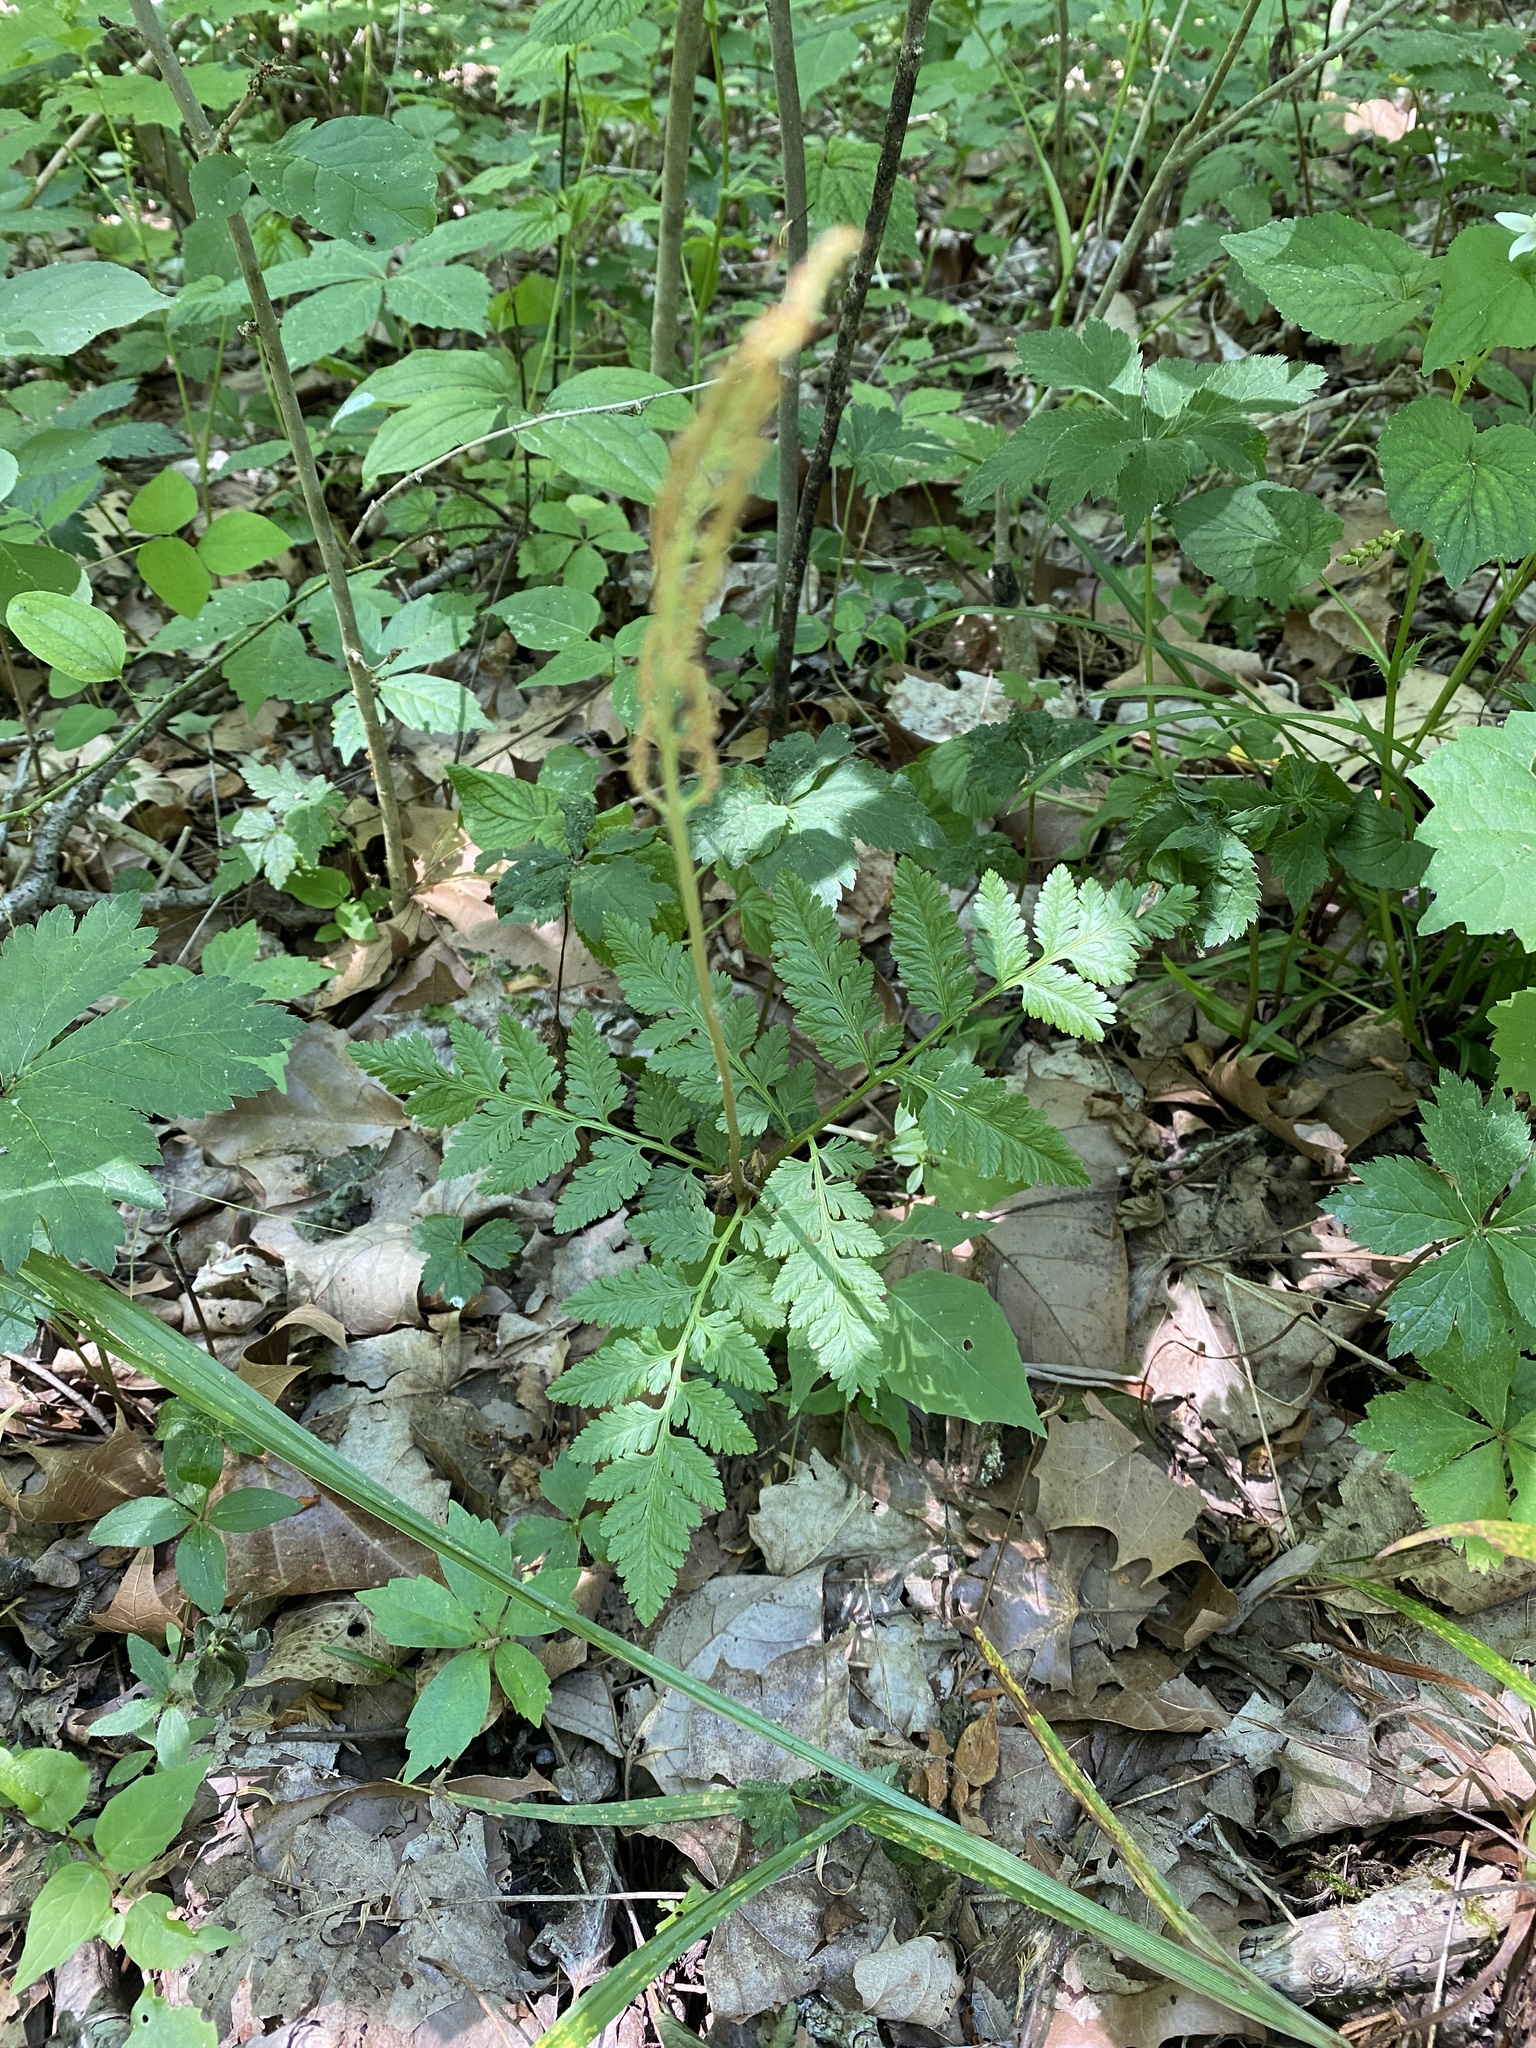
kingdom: Plantae
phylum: Tracheophyta
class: Polypodiopsida
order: Ophioglossales
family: Ophioglossaceae
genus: Botrypus
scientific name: Botrypus virginianus
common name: Common grapefern
